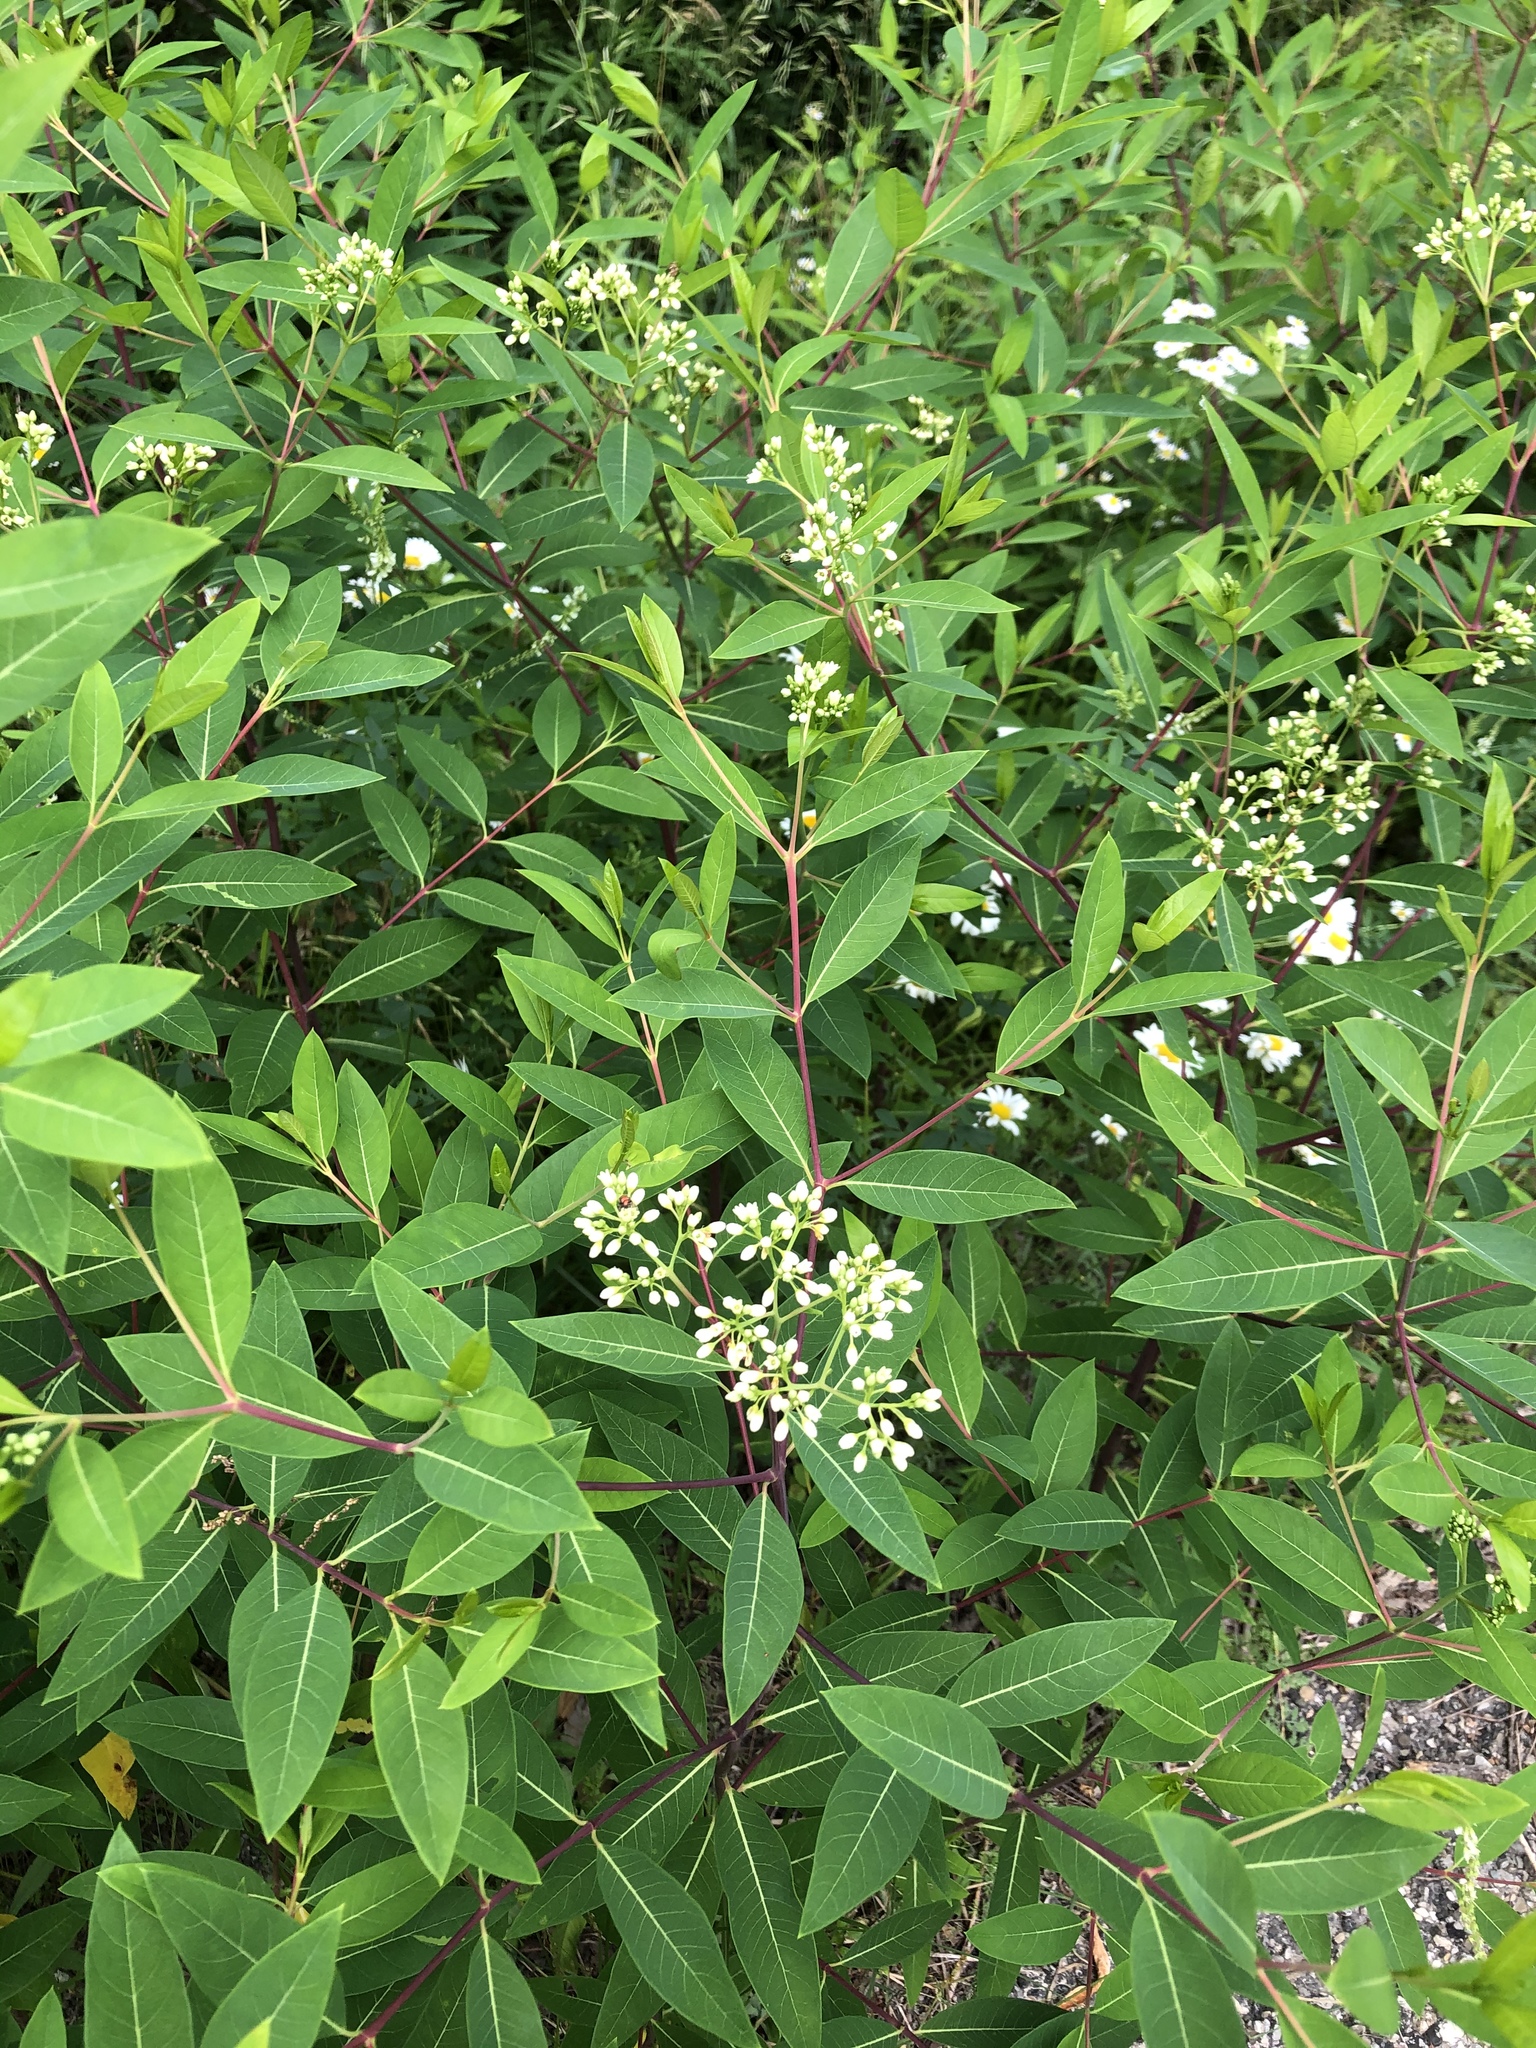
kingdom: Plantae
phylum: Tracheophyta
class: Magnoliopsida
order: Gentianales
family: Apocynaceae
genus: Apocynum
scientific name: Apocynum cannabinum
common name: Hemp dogbane
